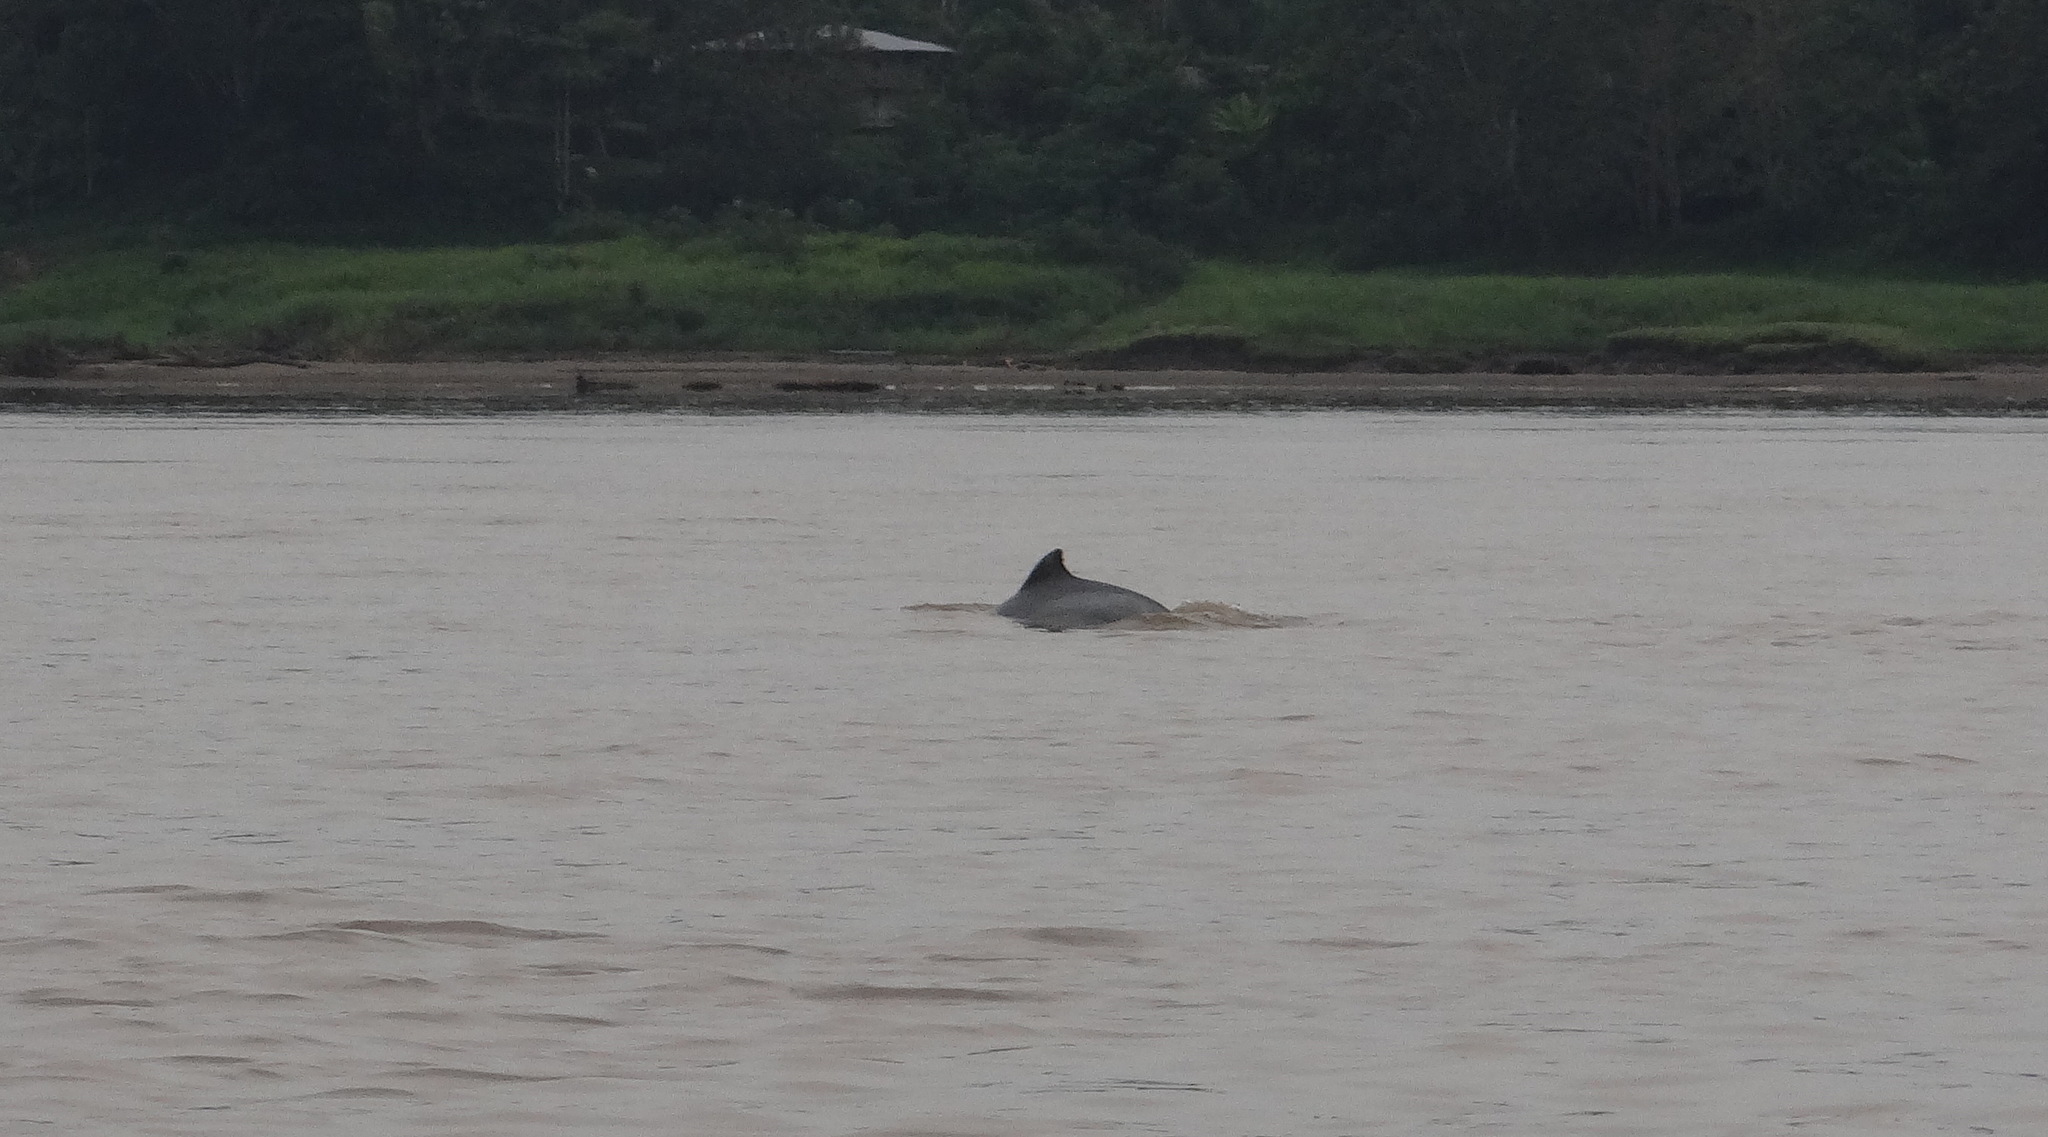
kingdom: Animalia
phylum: Chordata
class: Mammalia
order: Cetacea
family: Delphinidae
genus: Sotalia
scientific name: Sotalia fluviatilis
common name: Tucuxi
